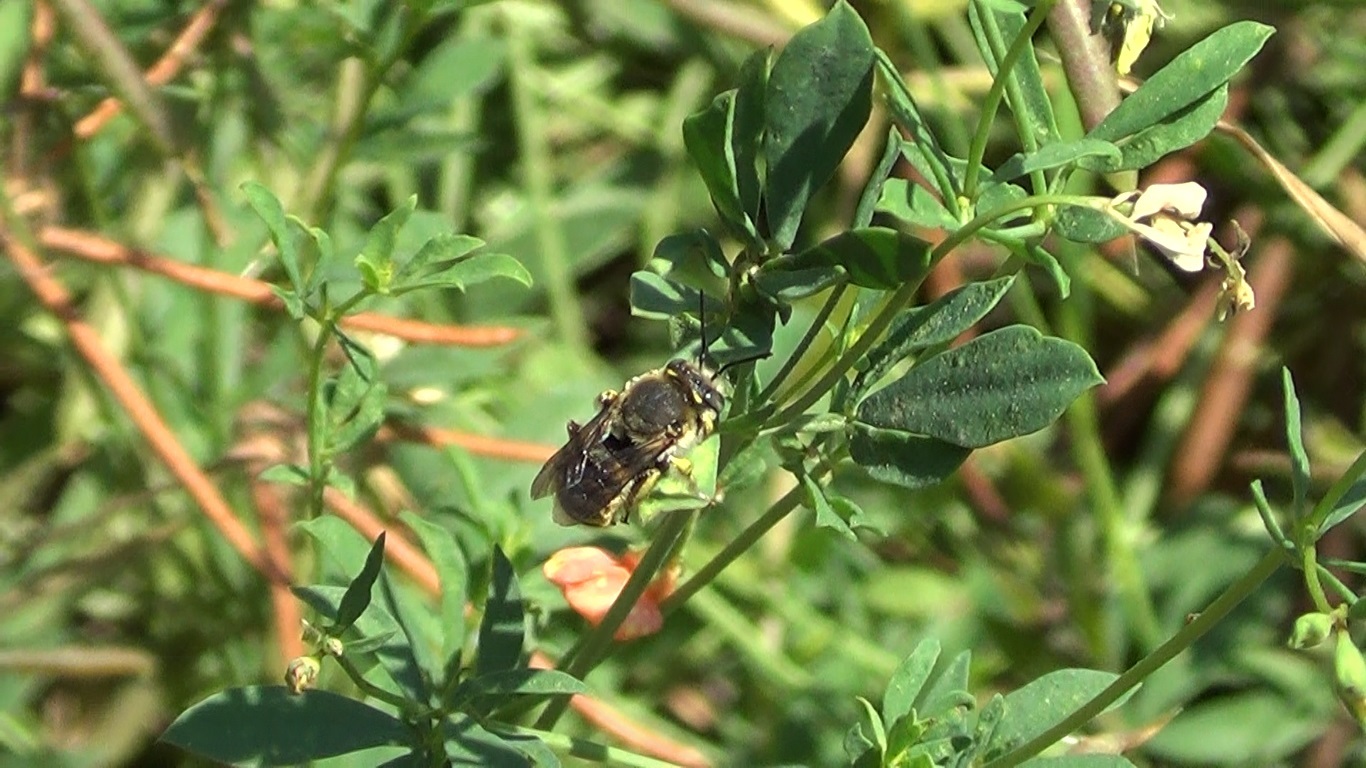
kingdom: Animalia
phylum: Arthropoda
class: Insecta
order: Hymenoptera
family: Megachilidae
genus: Anthidium
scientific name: Anthidium manicatum
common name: Wool carder bee
